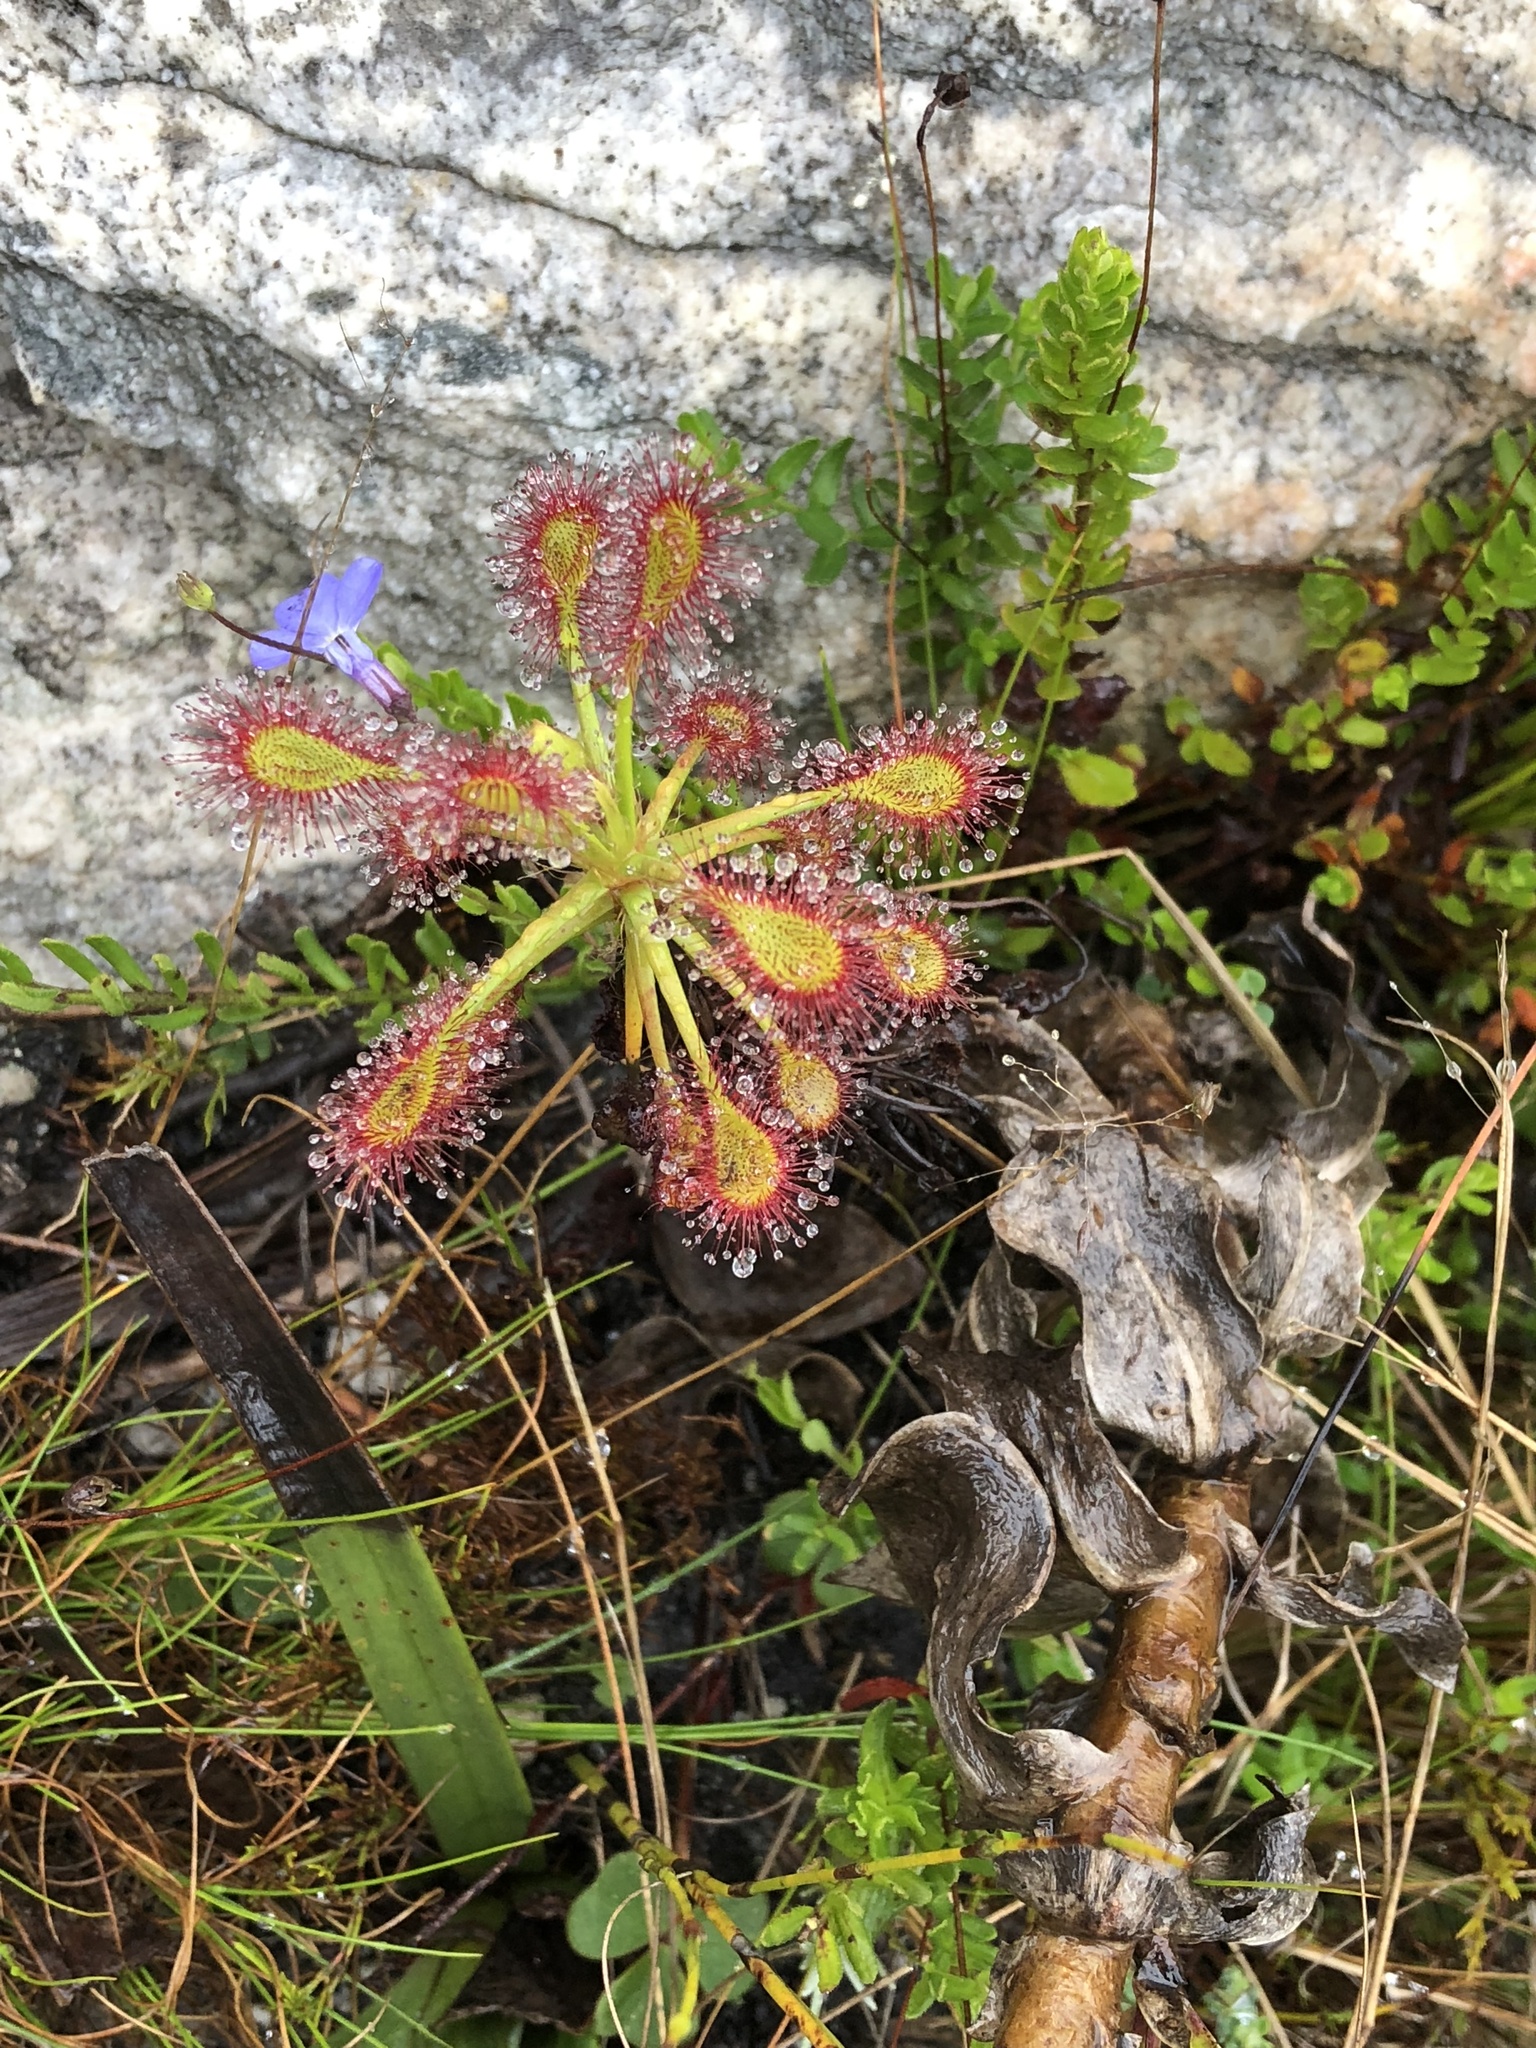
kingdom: Plantae
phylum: Tracheophyta
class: Magnoliopsida
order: Caryophyllales
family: Droseraceae
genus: Drosera
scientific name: Drosera glabripes
